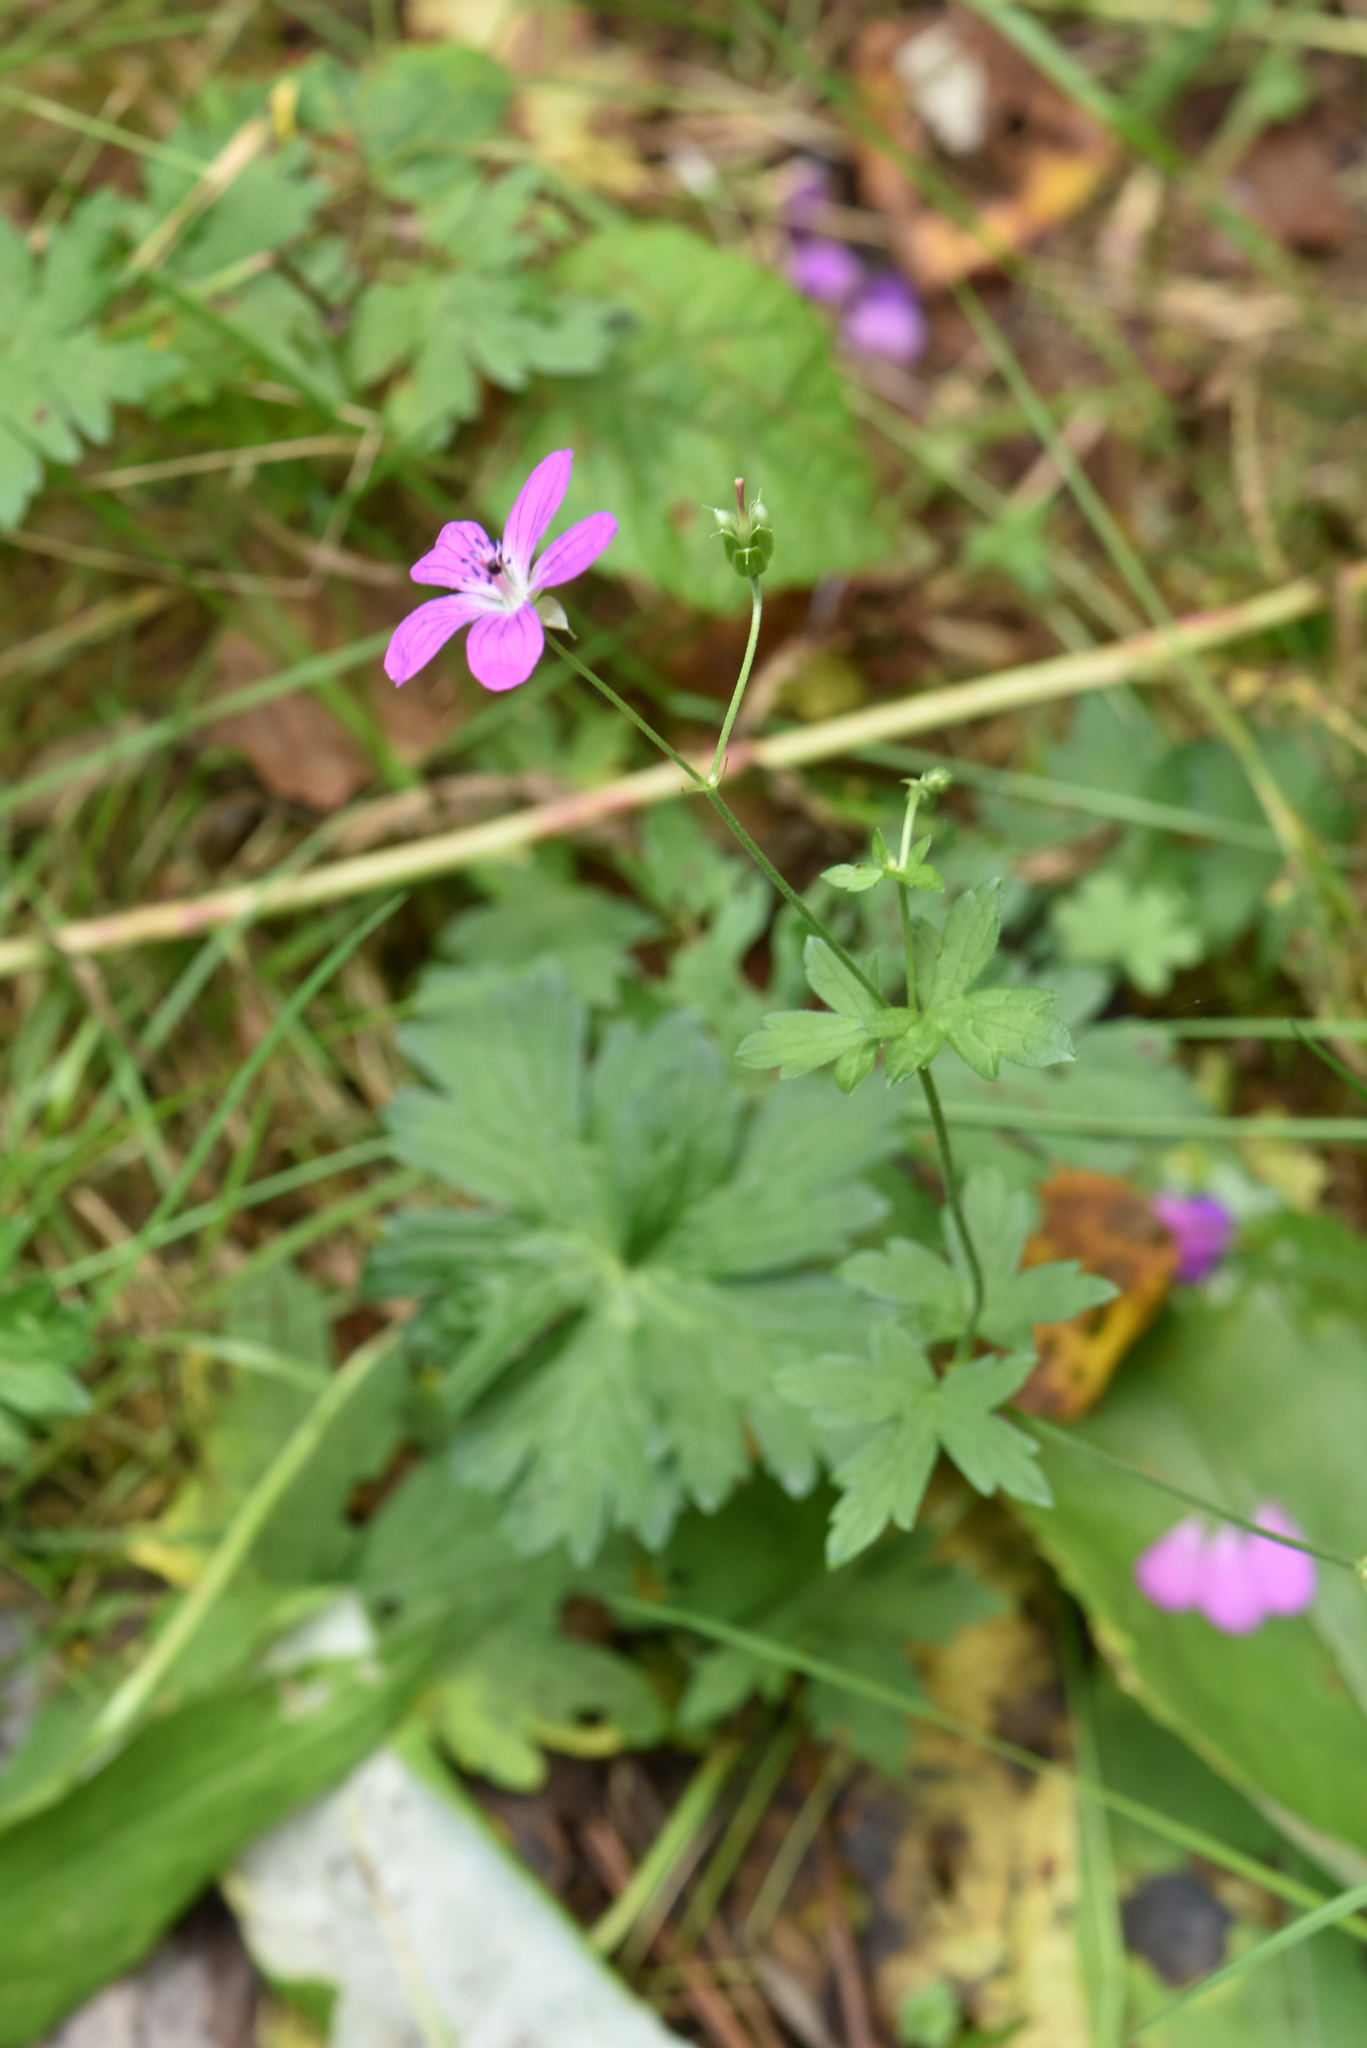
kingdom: Plantae
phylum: Tracheophyta
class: Magnoliopsida
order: Geraniales
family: Geraniaceae
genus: Geranium
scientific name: Geranium palustre
